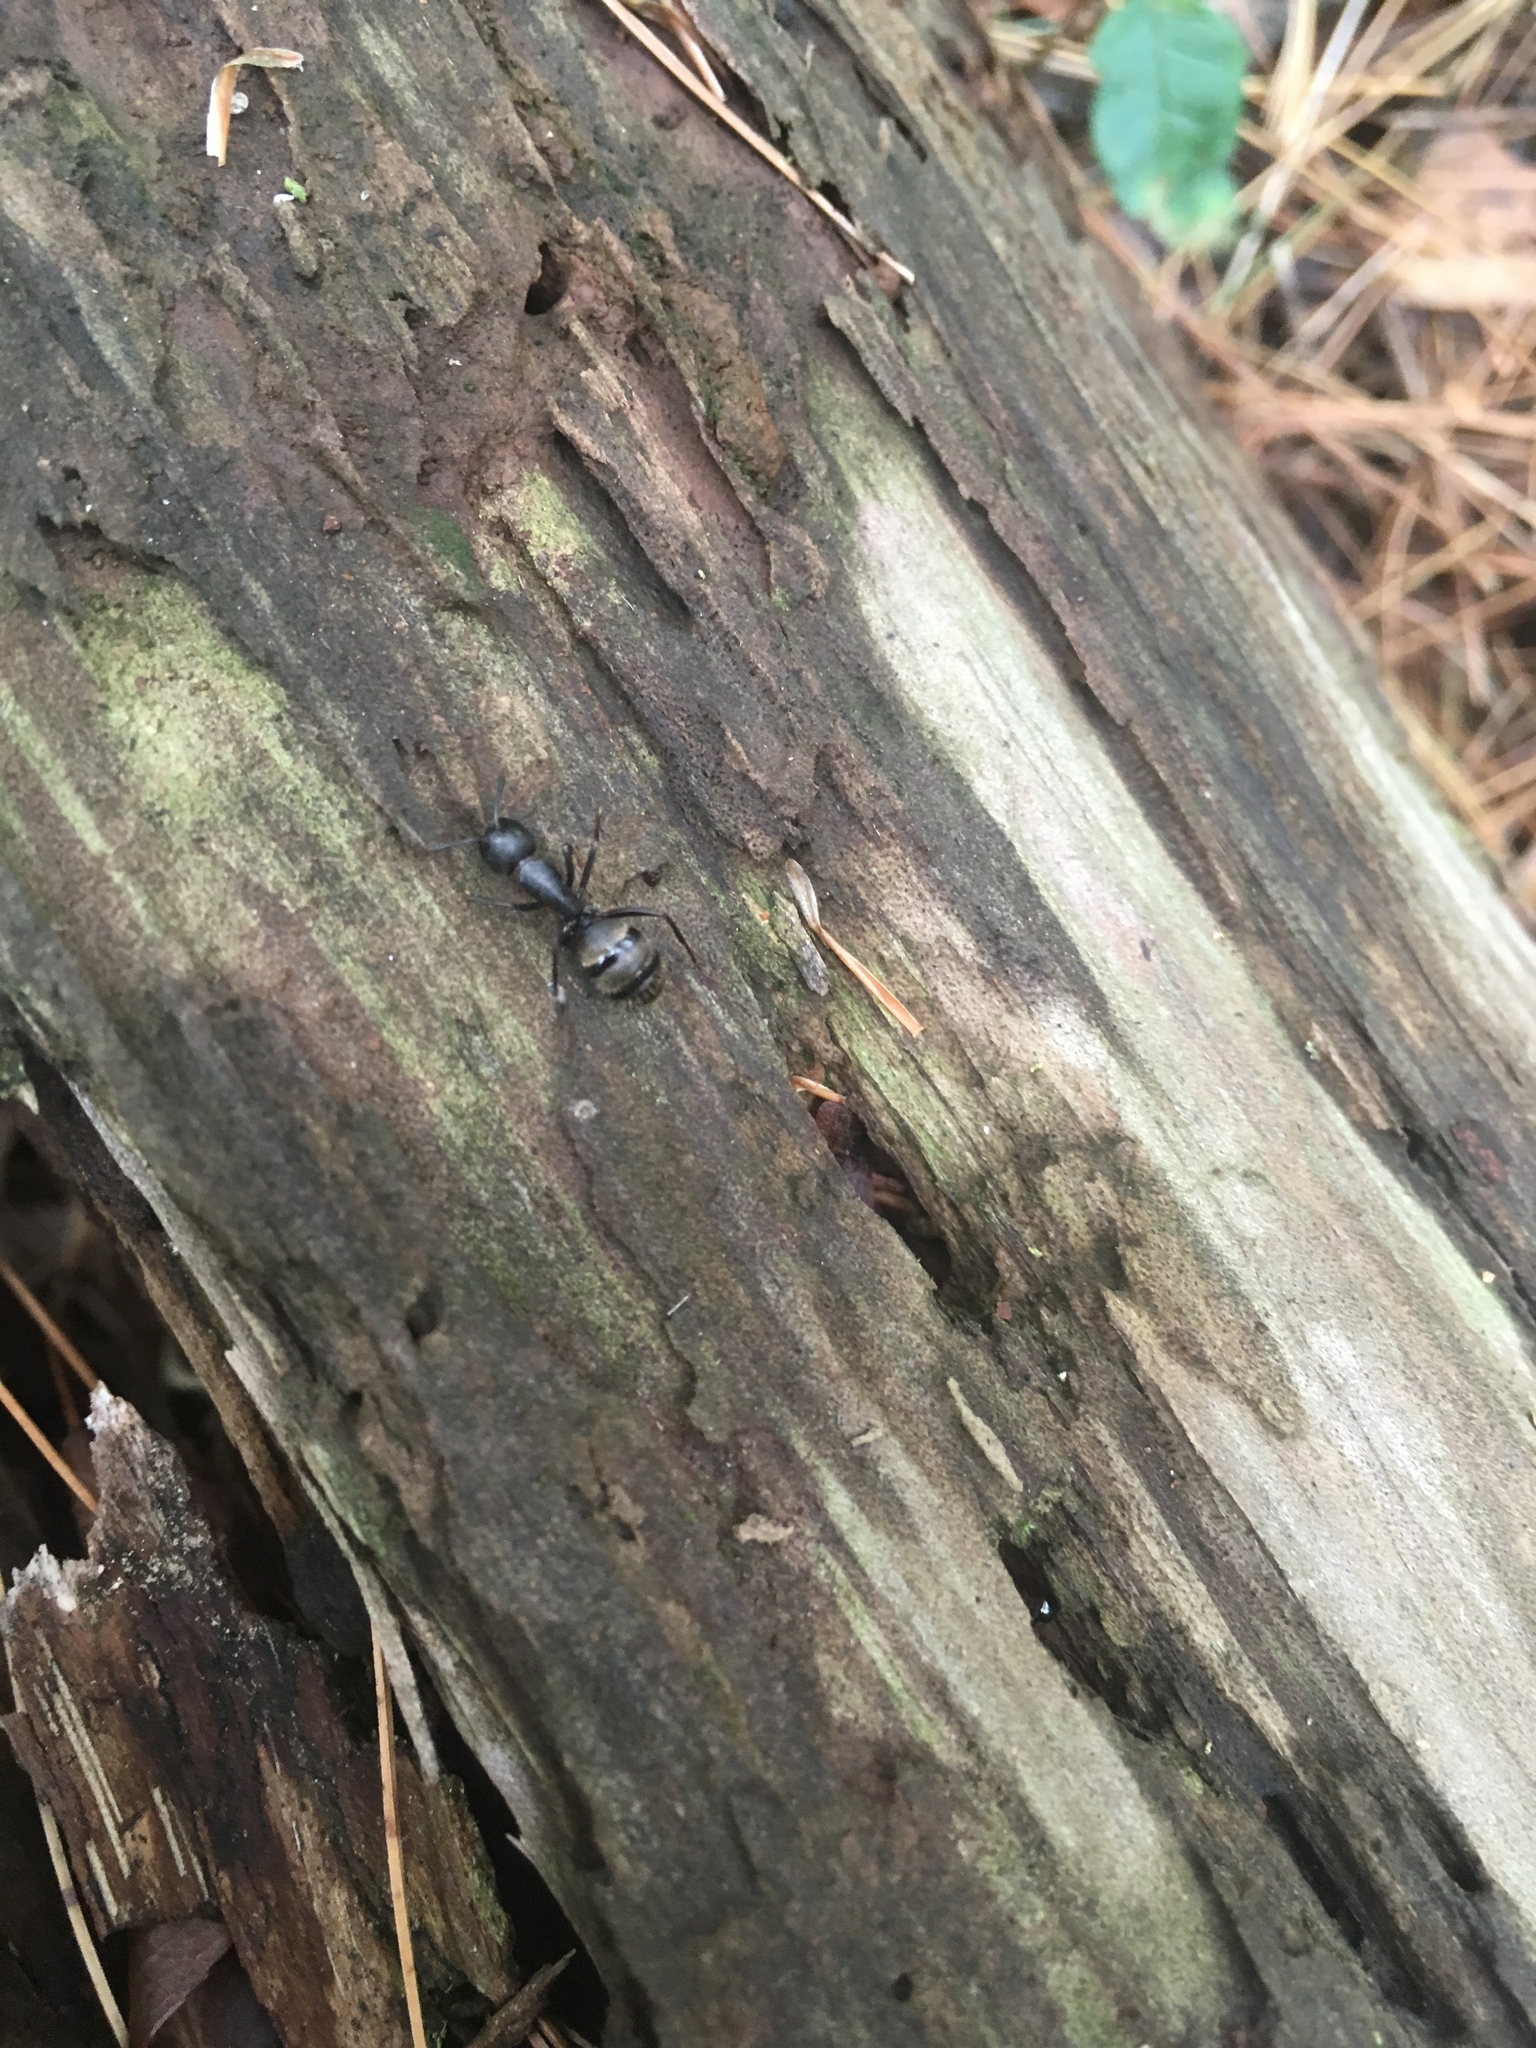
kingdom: Animalia
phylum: Arthropoda
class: Insecta
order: Hymenoptera
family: Formicidae
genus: Camponotus
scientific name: Camponotus pennsylvanicus
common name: Black carpenter ant
